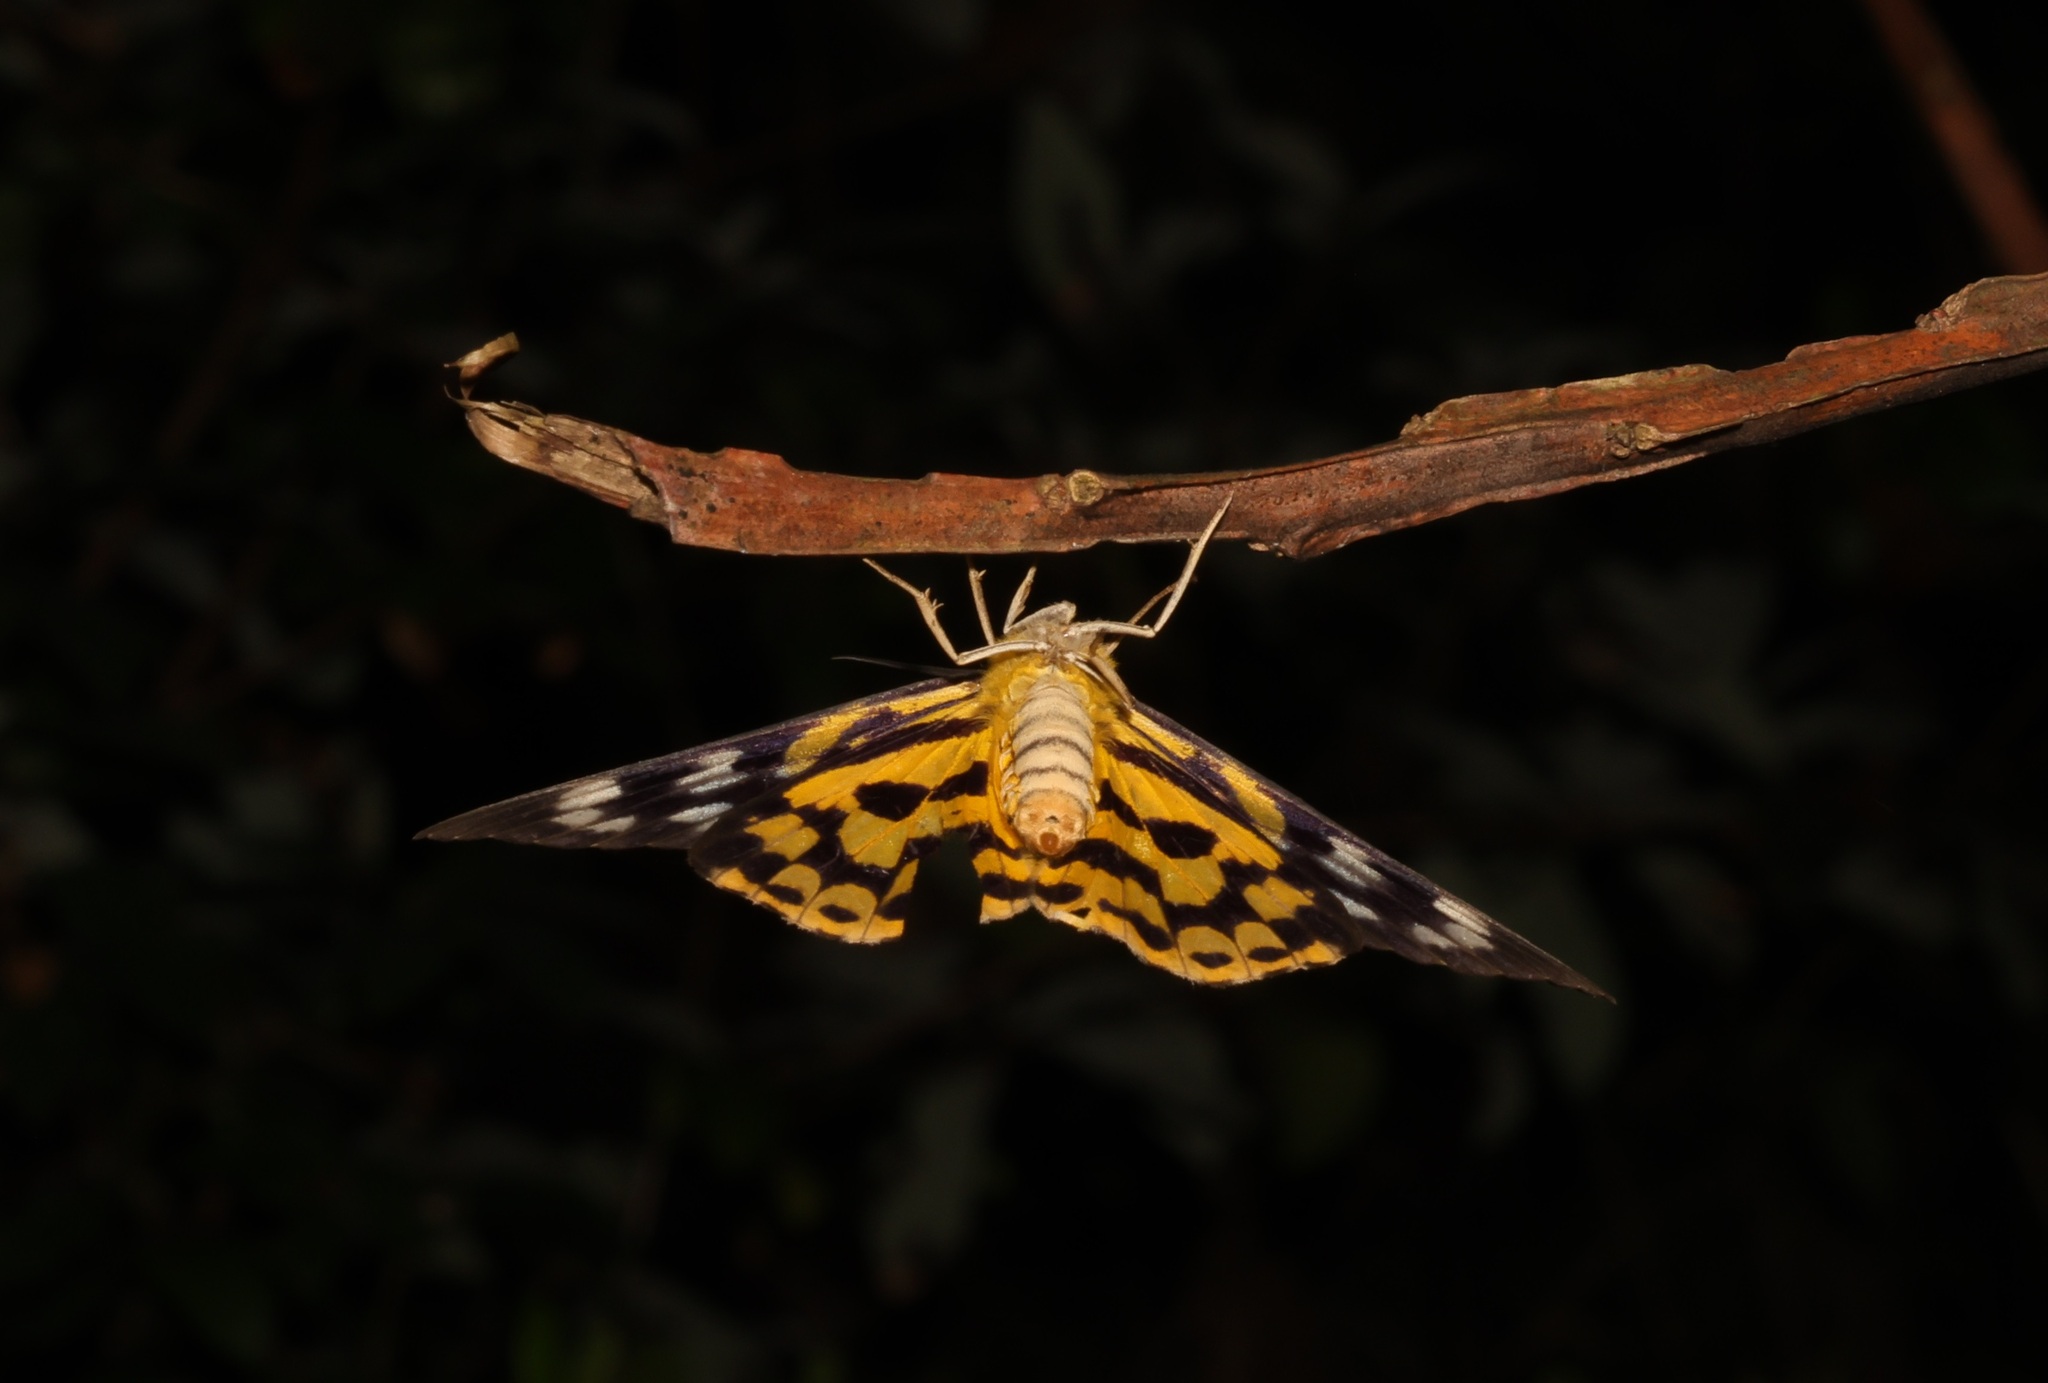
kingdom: Animalia
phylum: Arthropoda
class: Insecta
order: Lepidoptera
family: Geometridae
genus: Dysphania
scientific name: Dysphania militaris
